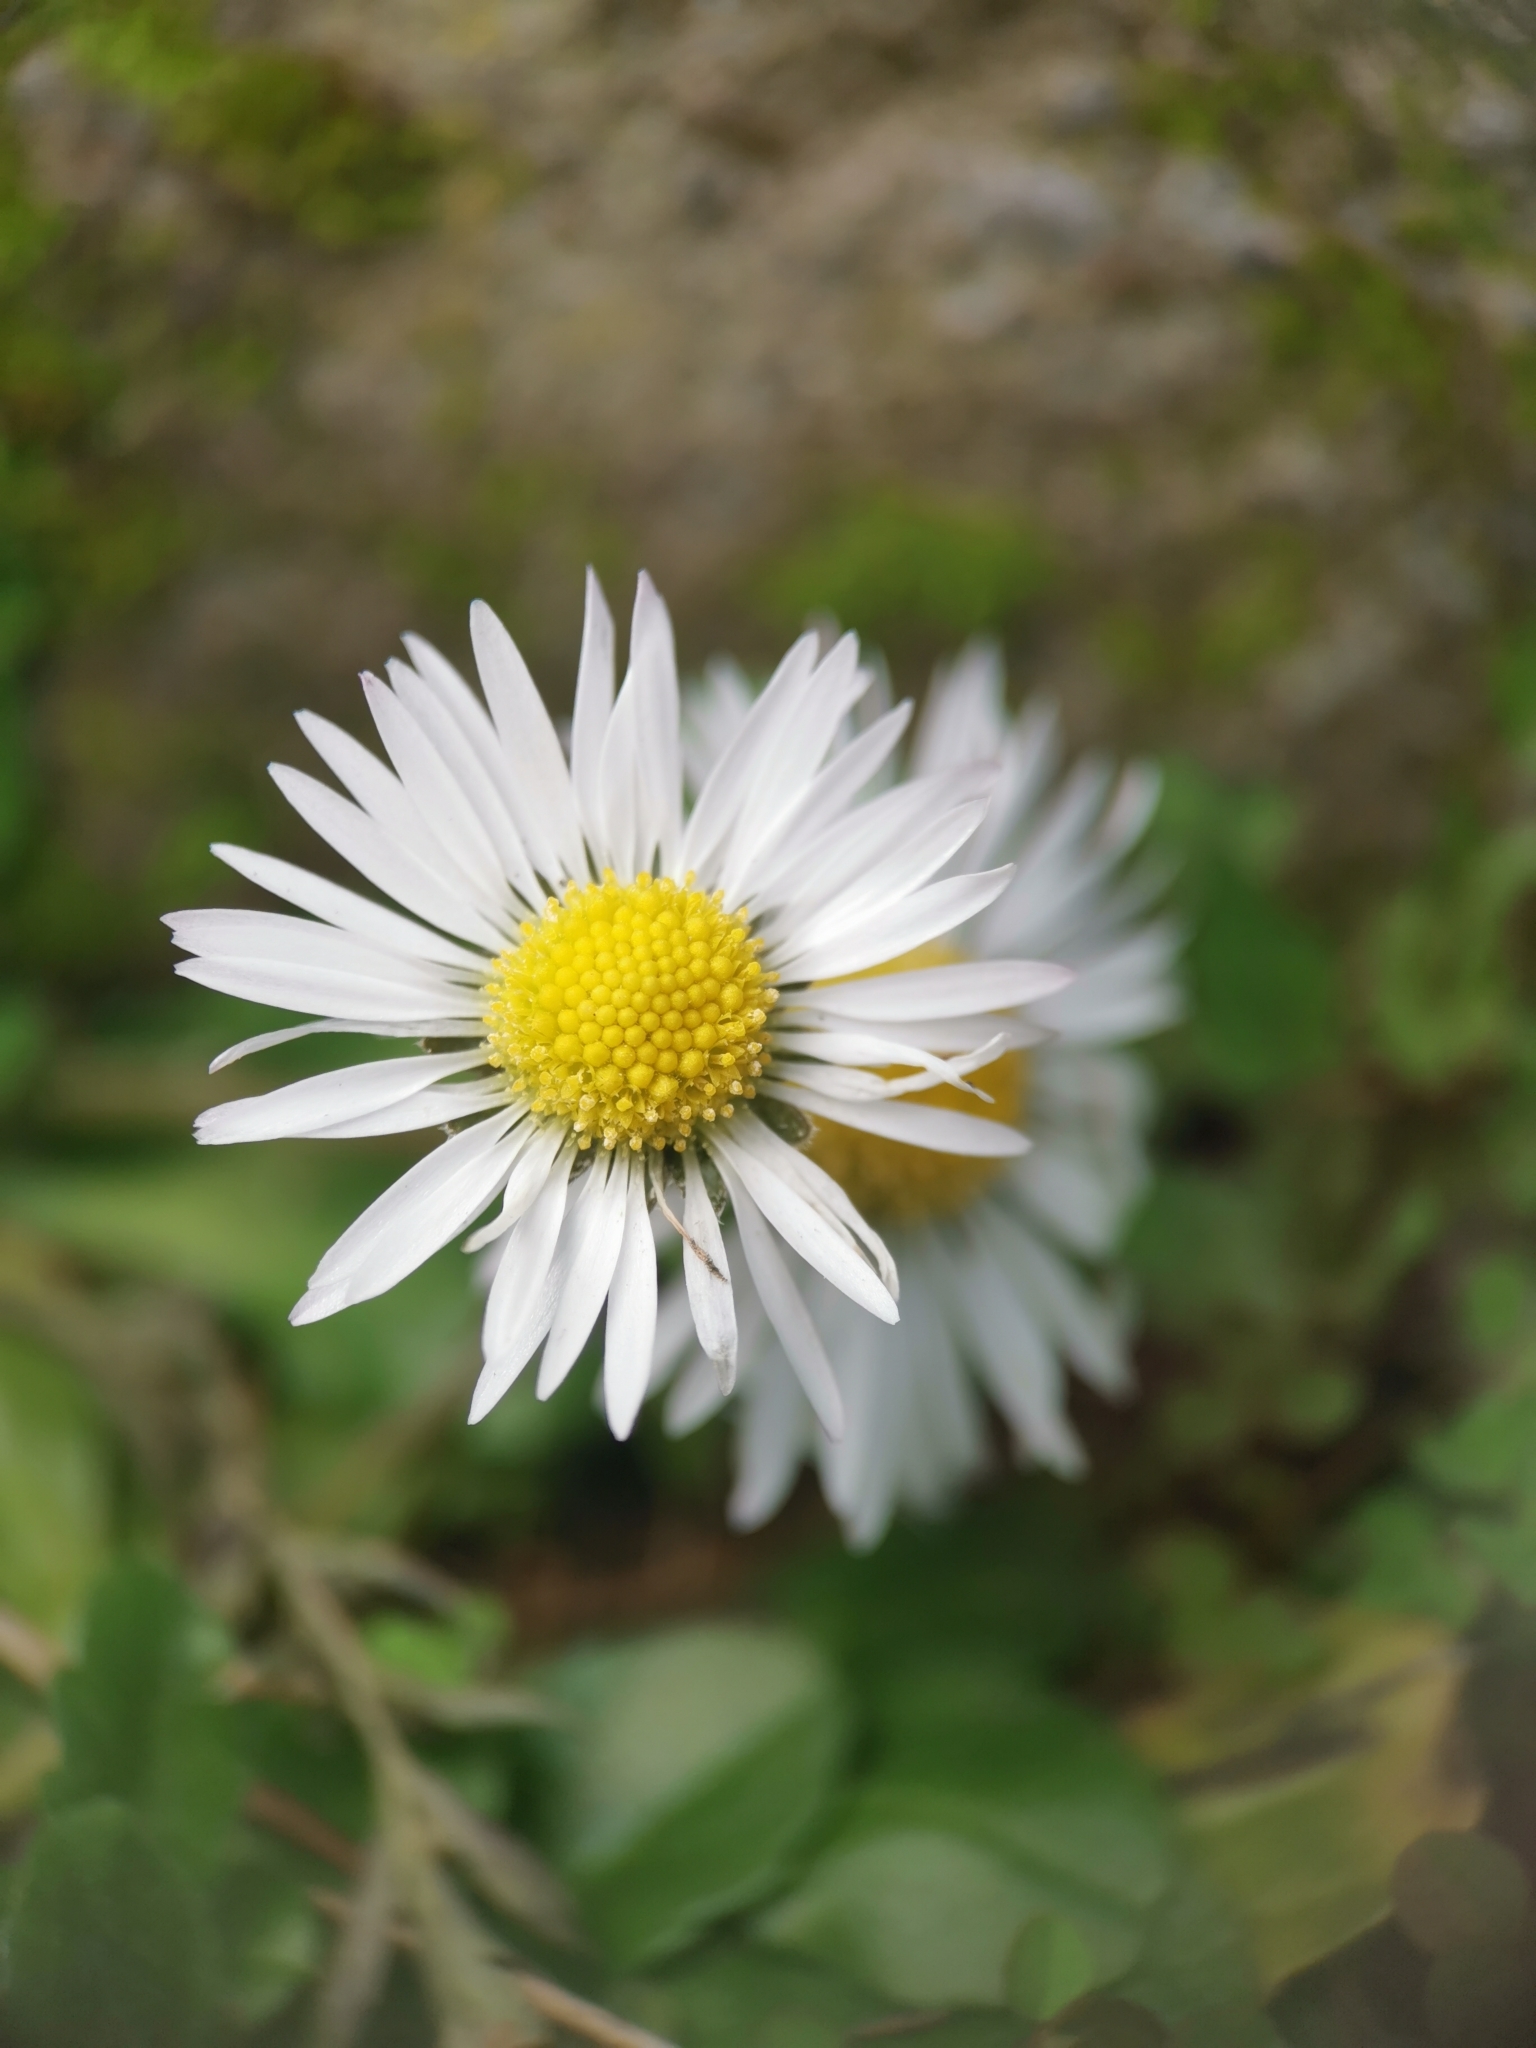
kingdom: Plantae
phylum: Tracheophyta
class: Magnoliopsida
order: Asterales
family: Asteraceae
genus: Bellis
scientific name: Bellis perennis
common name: Lawndaisy
